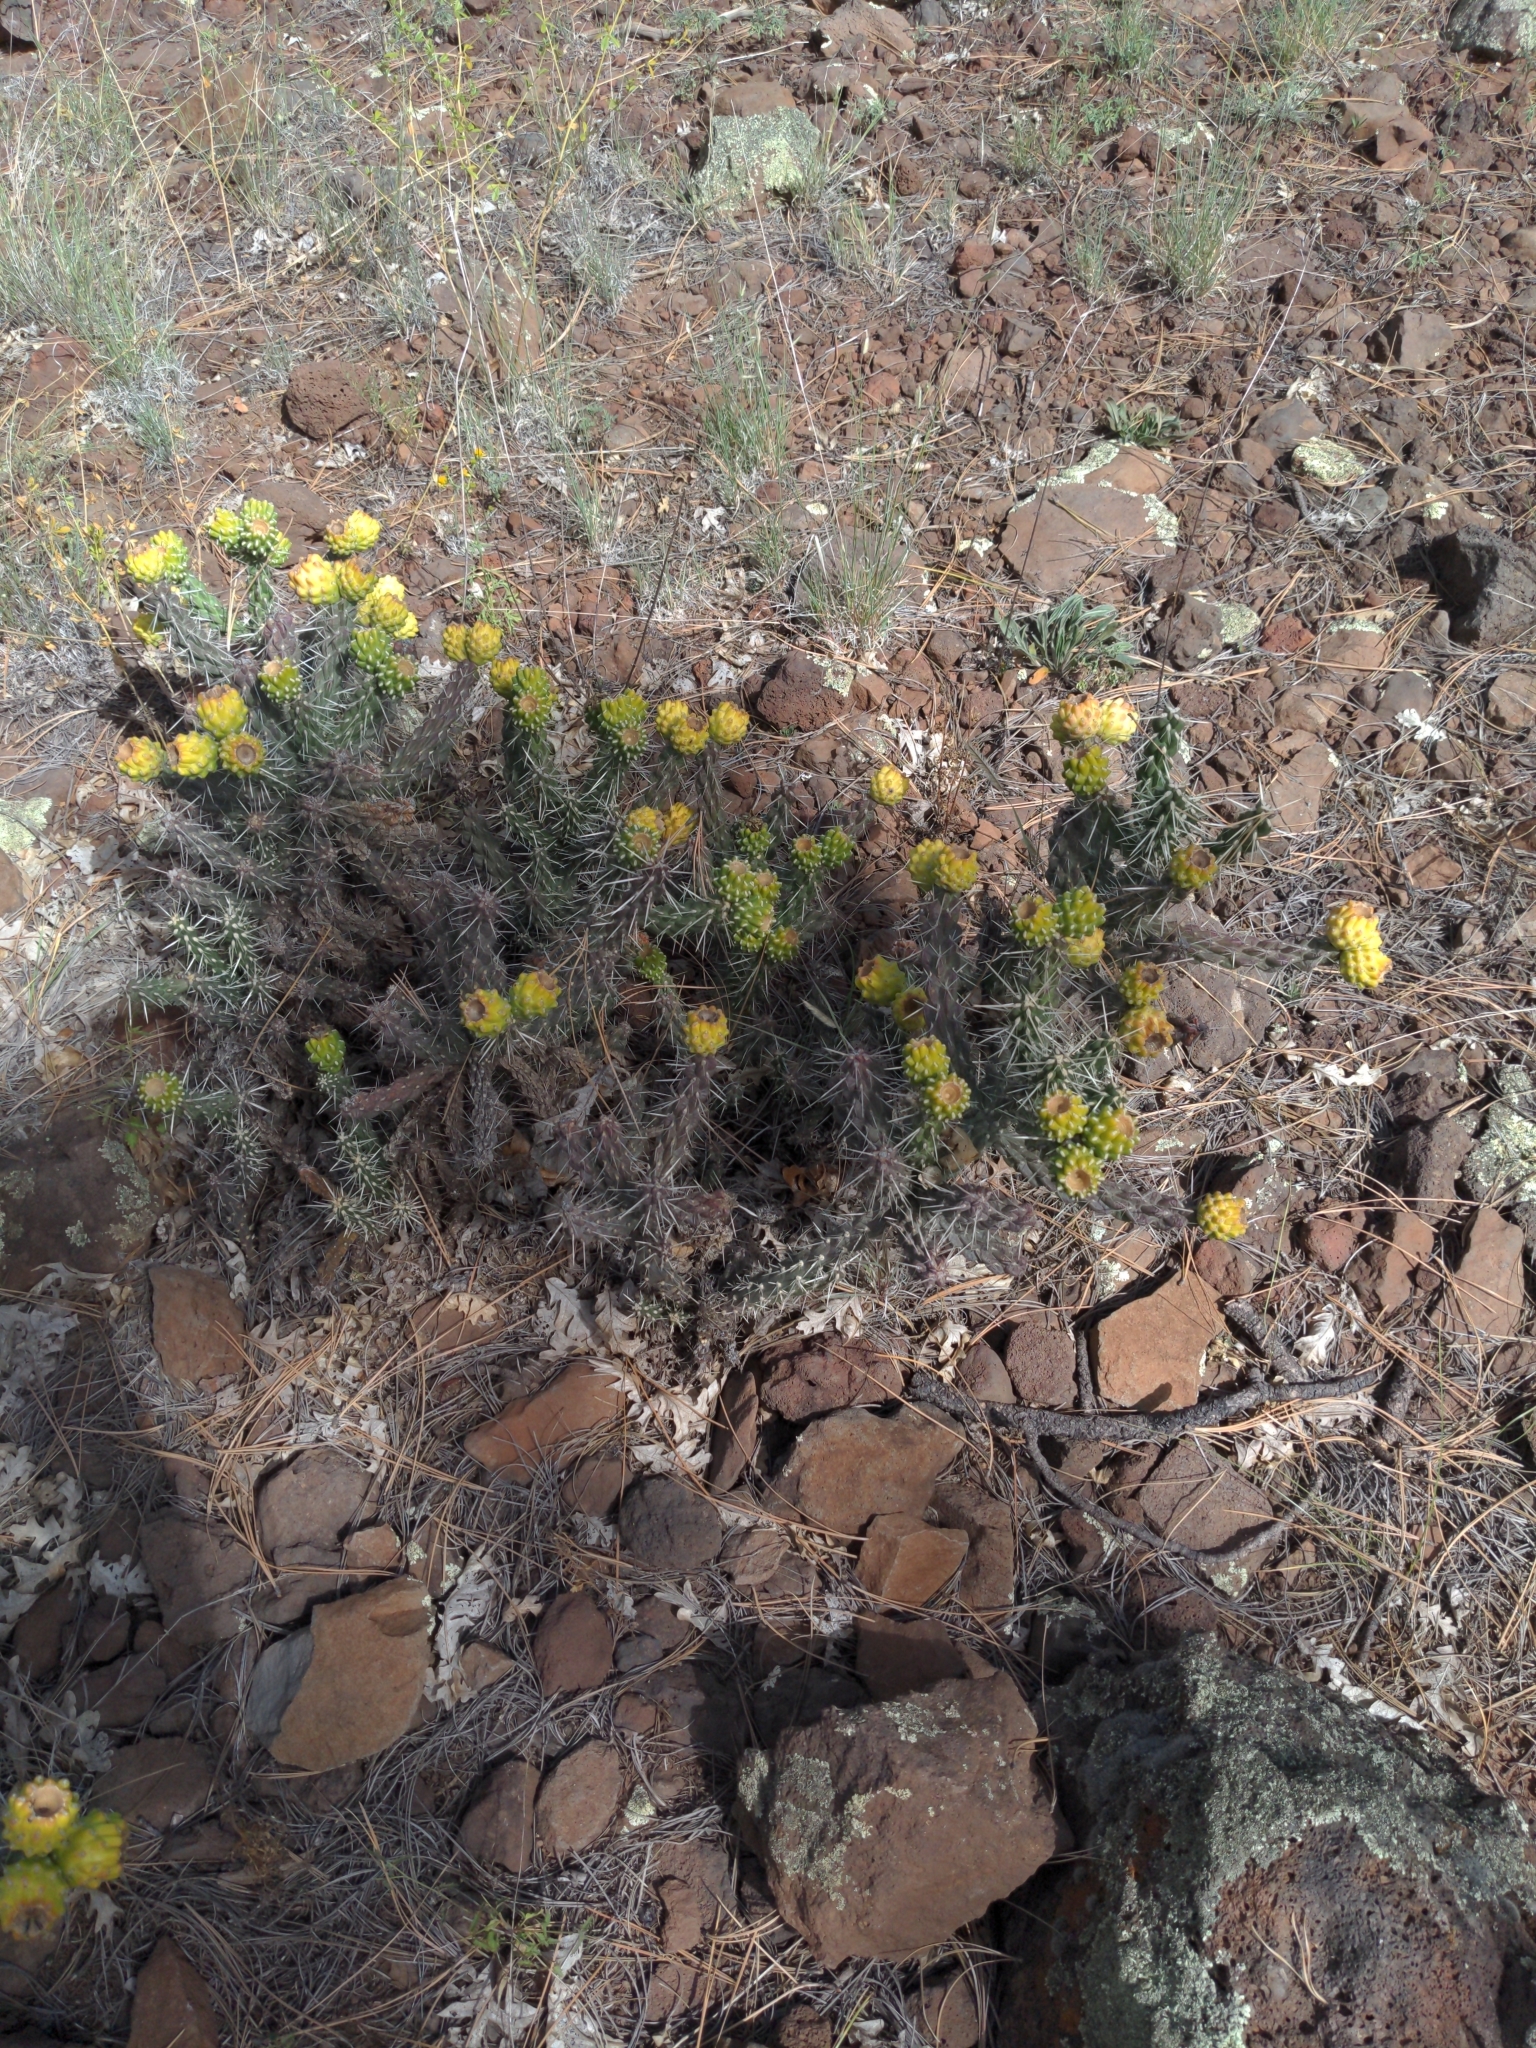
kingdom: Plantae
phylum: Tracheophyta
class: Magnoliopsida
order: Caryophyllales
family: Cactaceae
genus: Cylindropuntia
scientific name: Cylindropuntia whipplei
